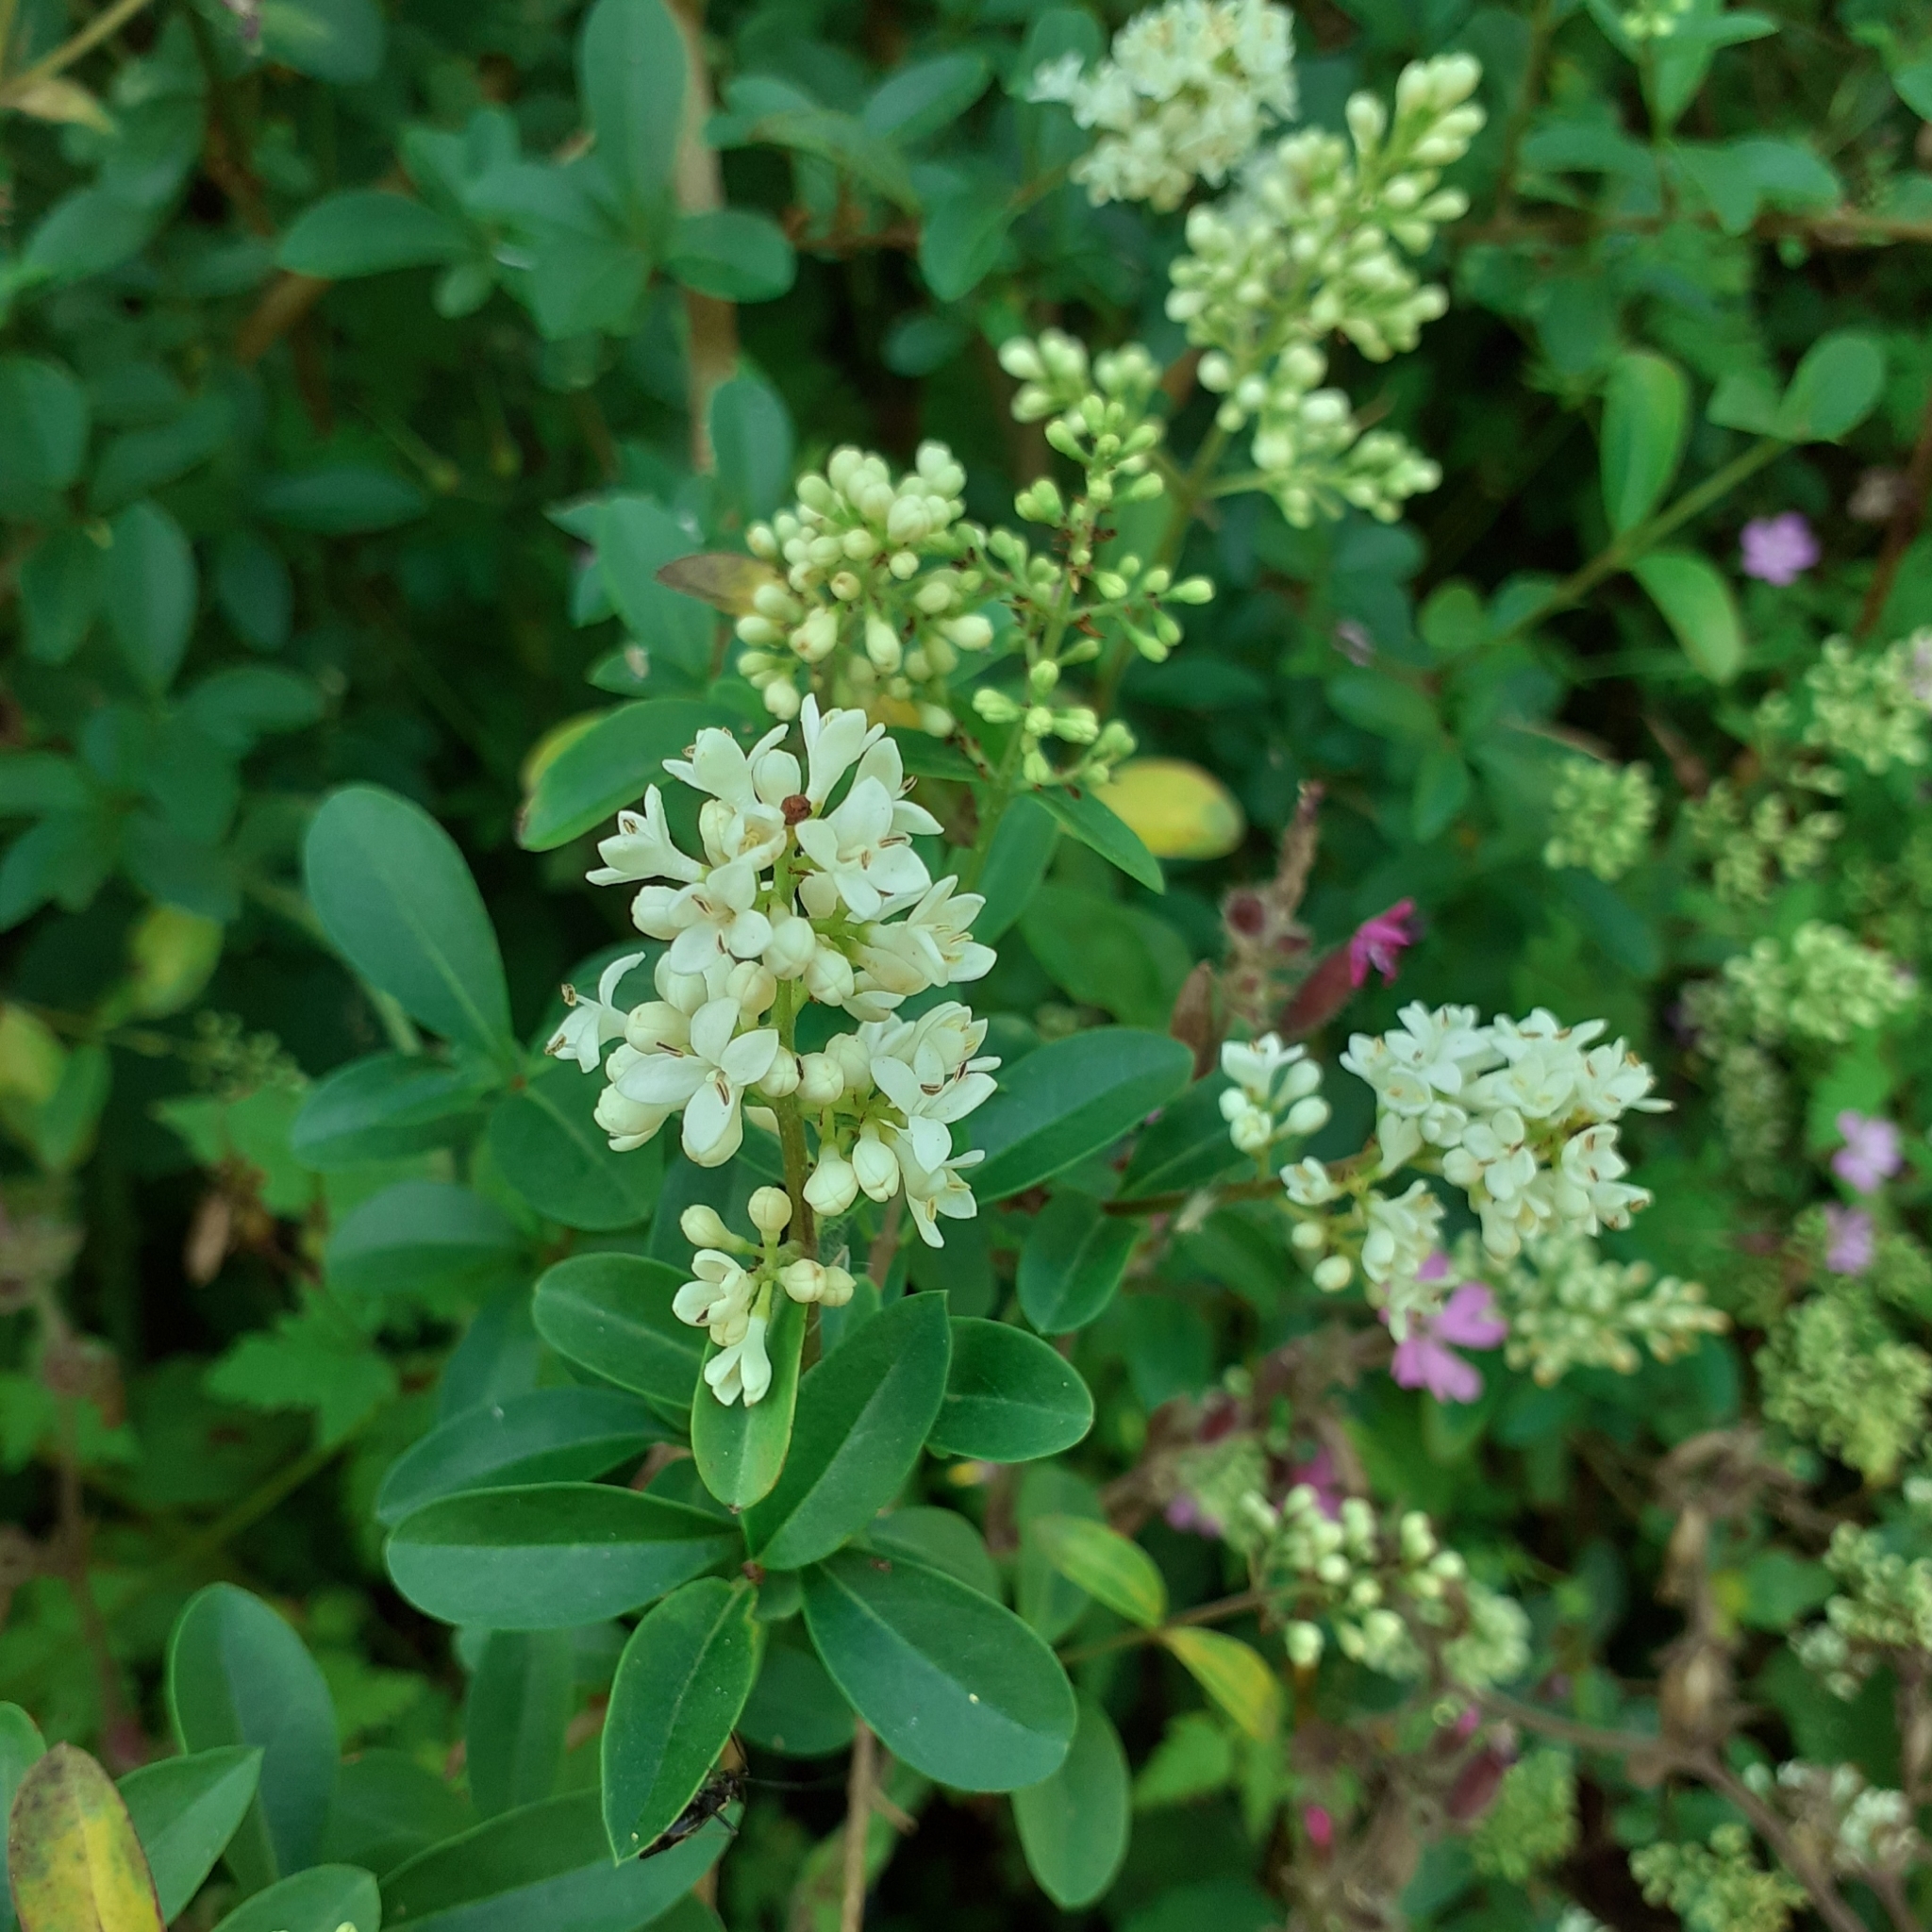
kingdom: Plantae
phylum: Tracheophyta
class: Magnoliopsida
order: Lamiales
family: Oleaceae
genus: Ligustrum
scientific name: Ligustrum vulgare
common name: Wild privet
